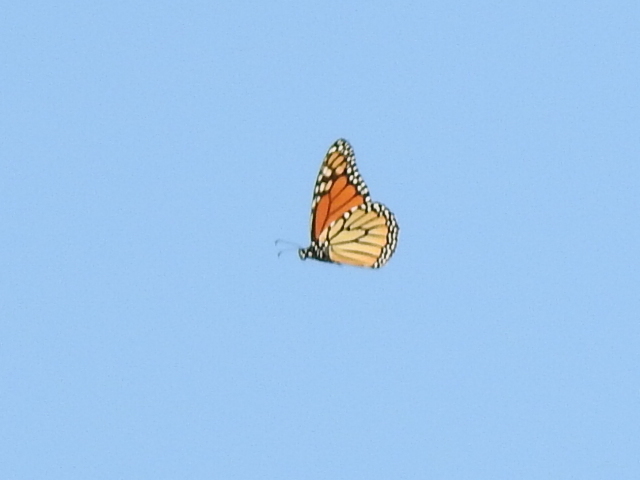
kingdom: Animalia
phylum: Arthropoda
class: Insecta
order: Lepidoptera
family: Nymphalidae
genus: Danaus
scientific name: Danaus plexippus
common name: Monarch
